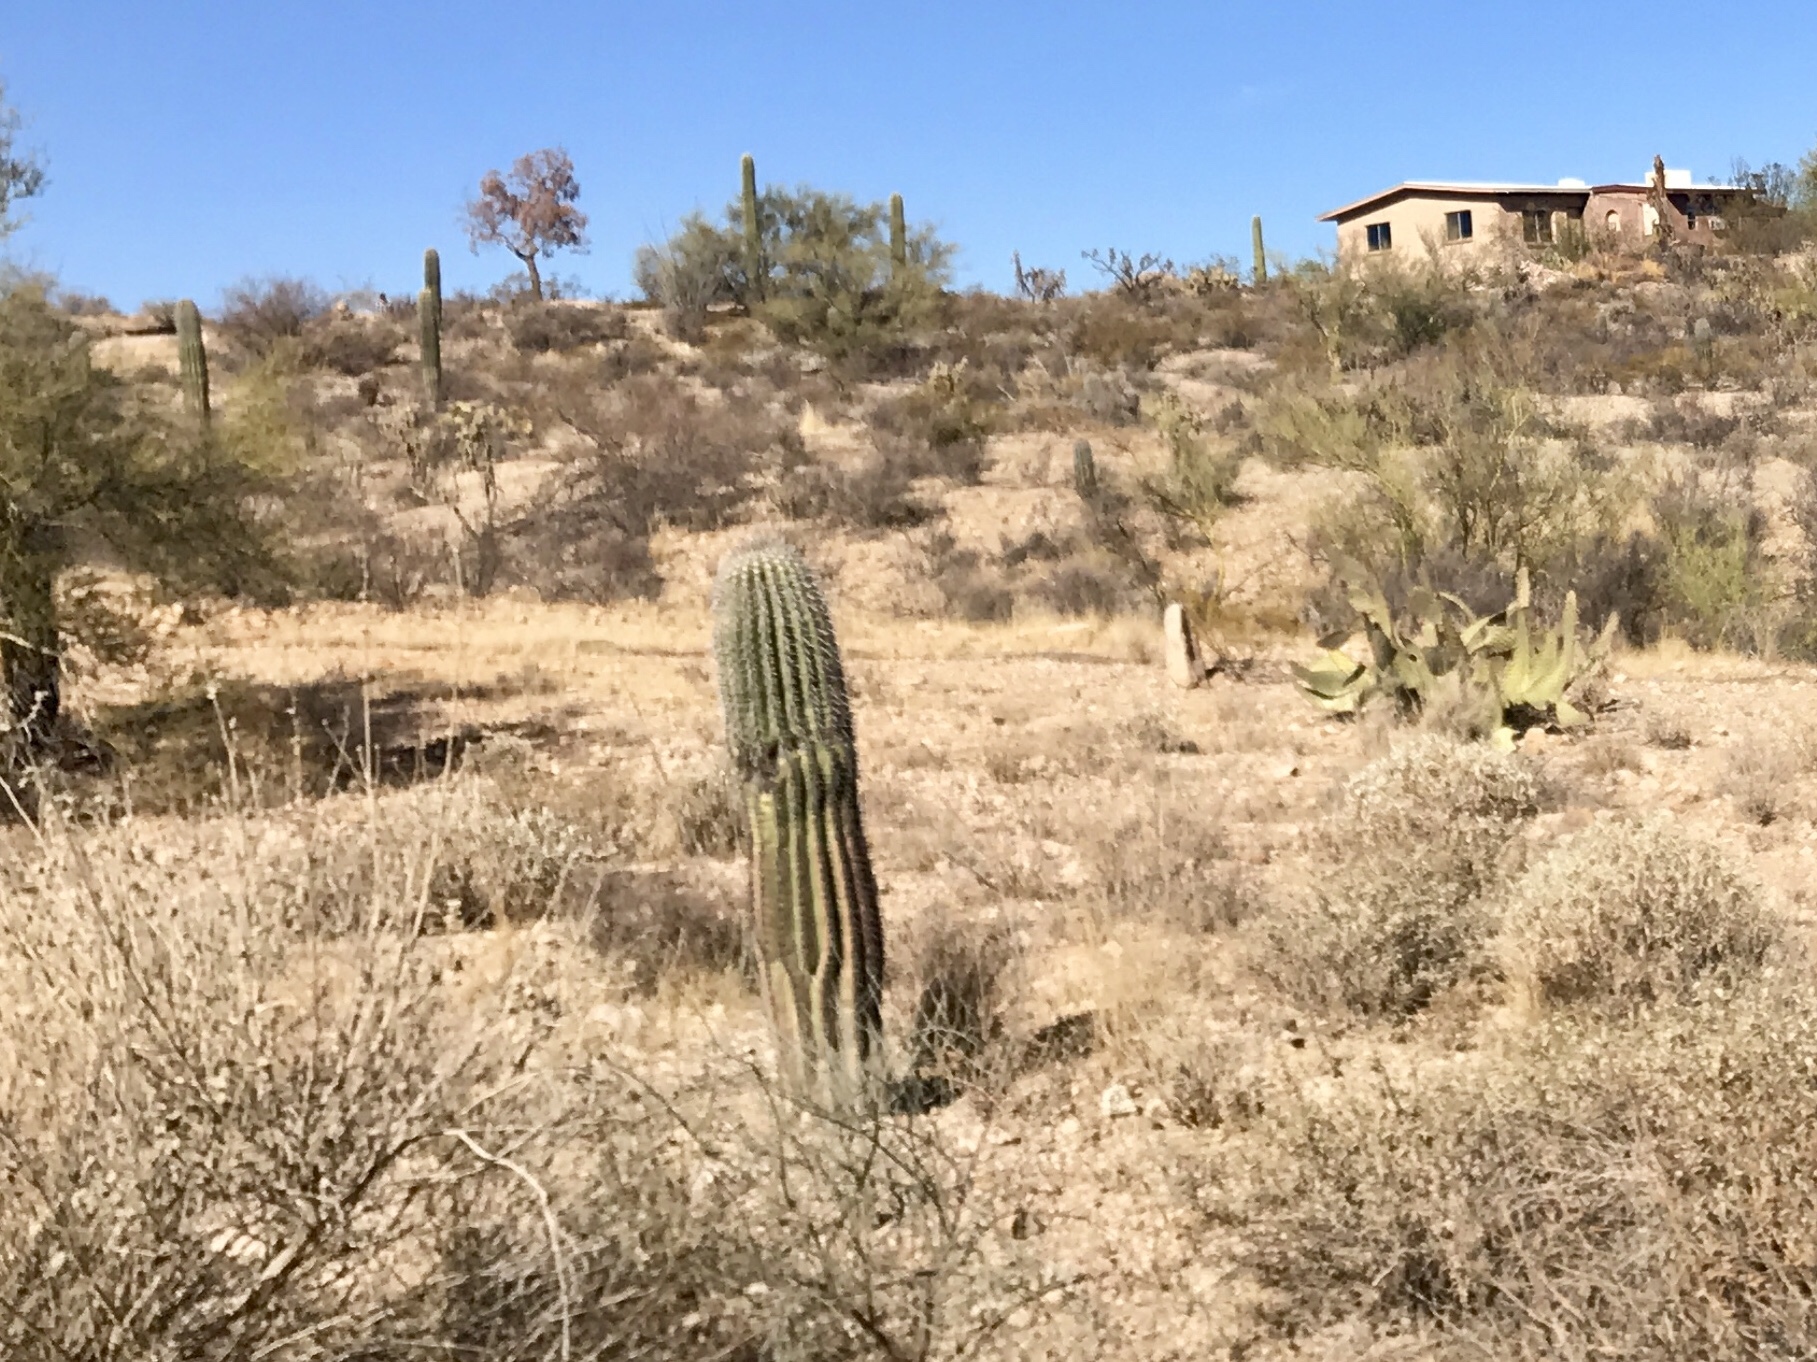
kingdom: Plantae
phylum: Tracheophyta
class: Magnoliopsida
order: Caryophyllales
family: Cactaceae
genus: Carnegiea
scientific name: Carnegiea gigantea
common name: Saguaro
